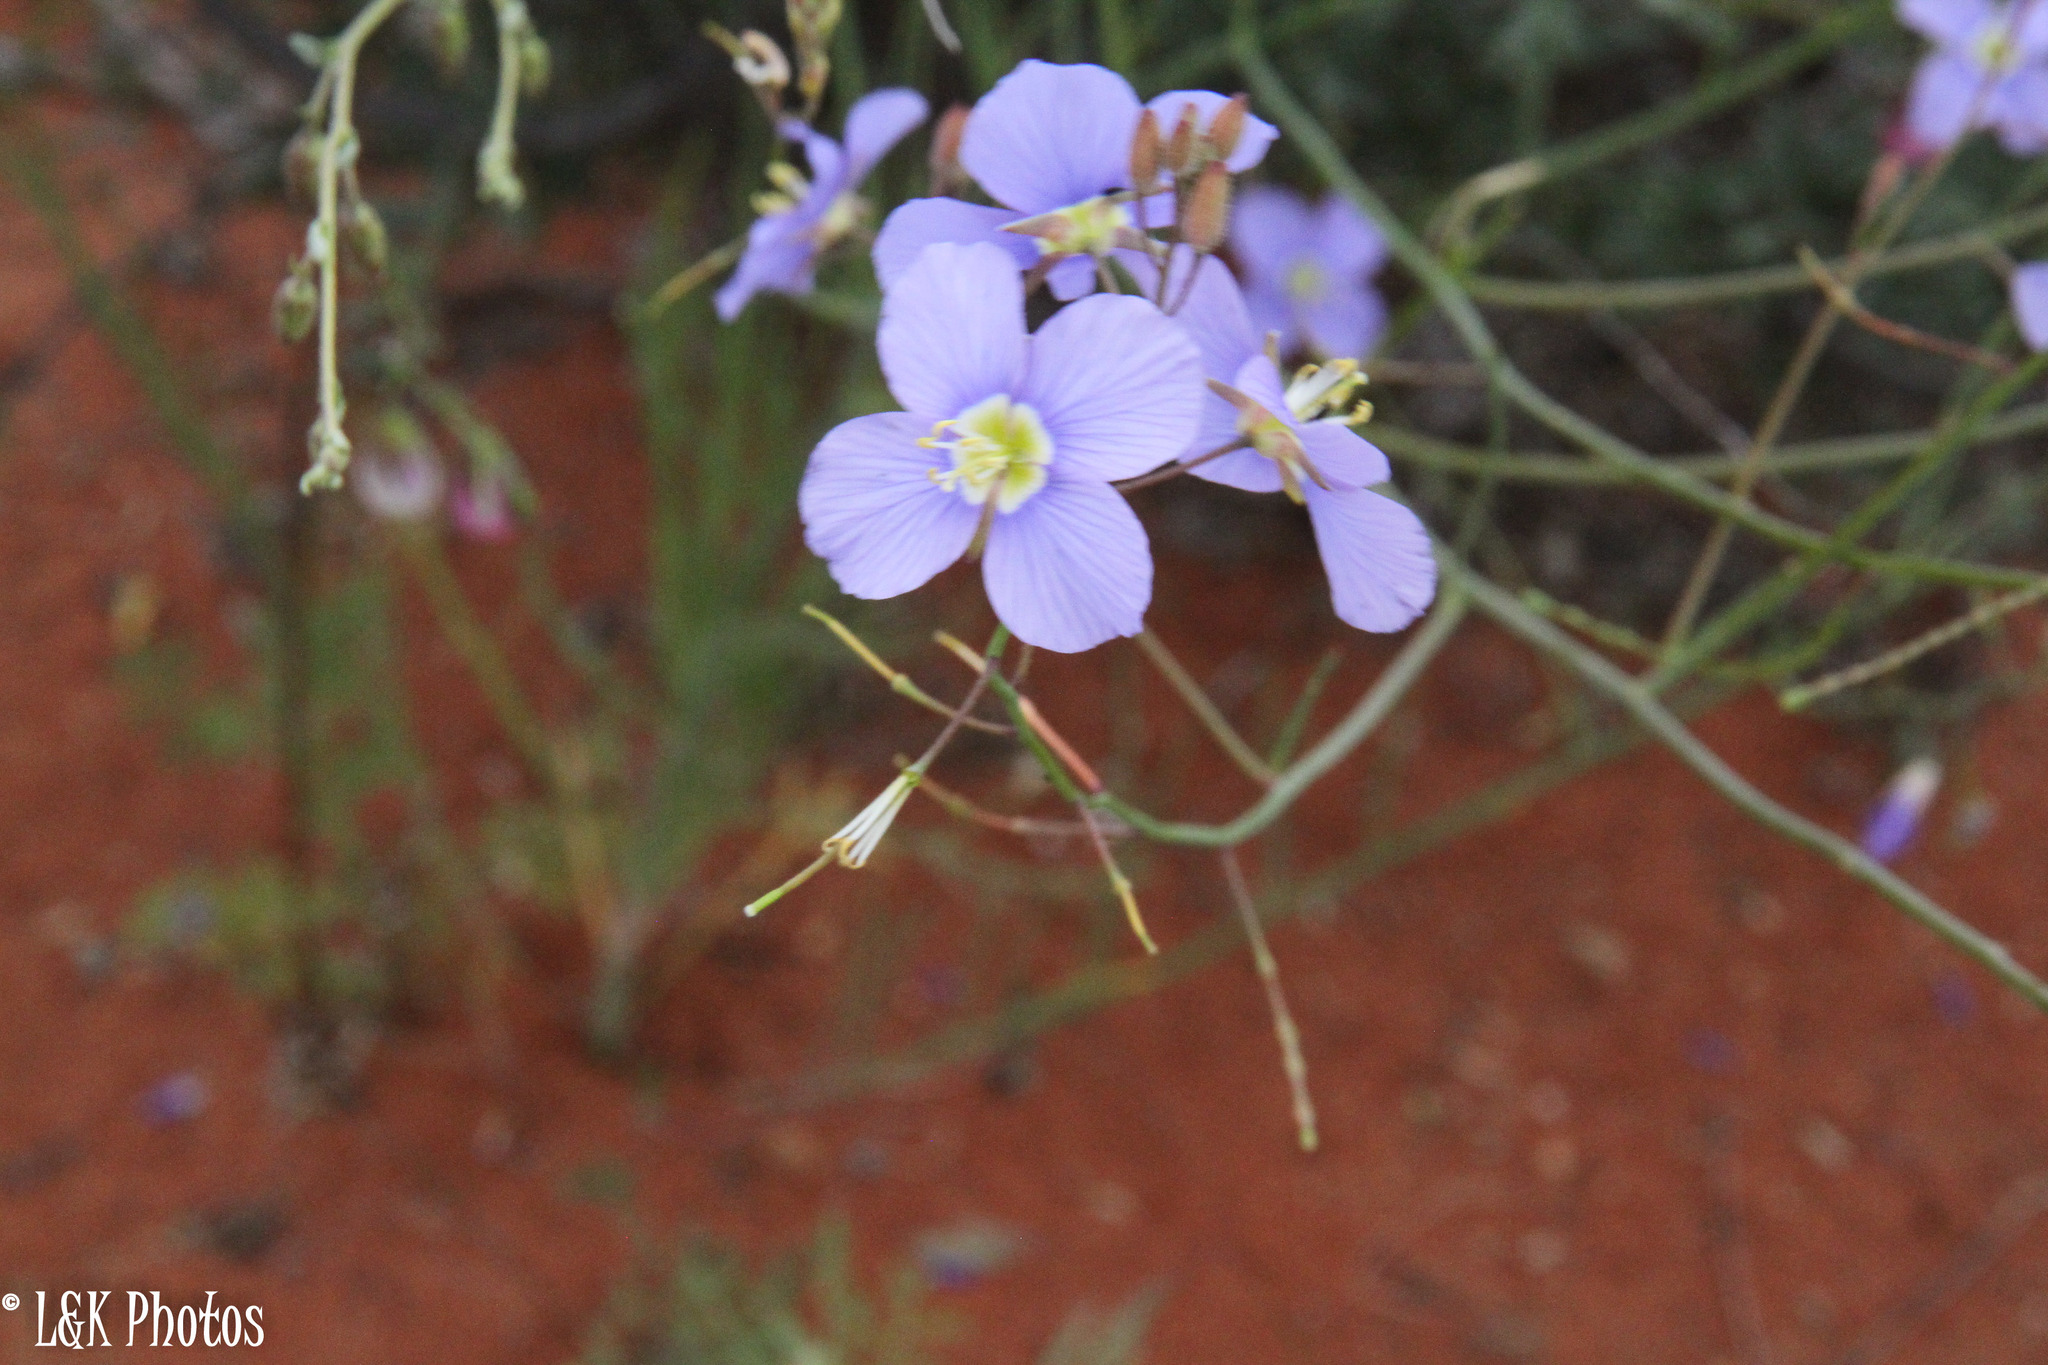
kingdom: Plantae
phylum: Tracheophyta
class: Magnoliopsida
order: Brassicales
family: Brassicaceae
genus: Heliophila
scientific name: Heliophila arenaria
